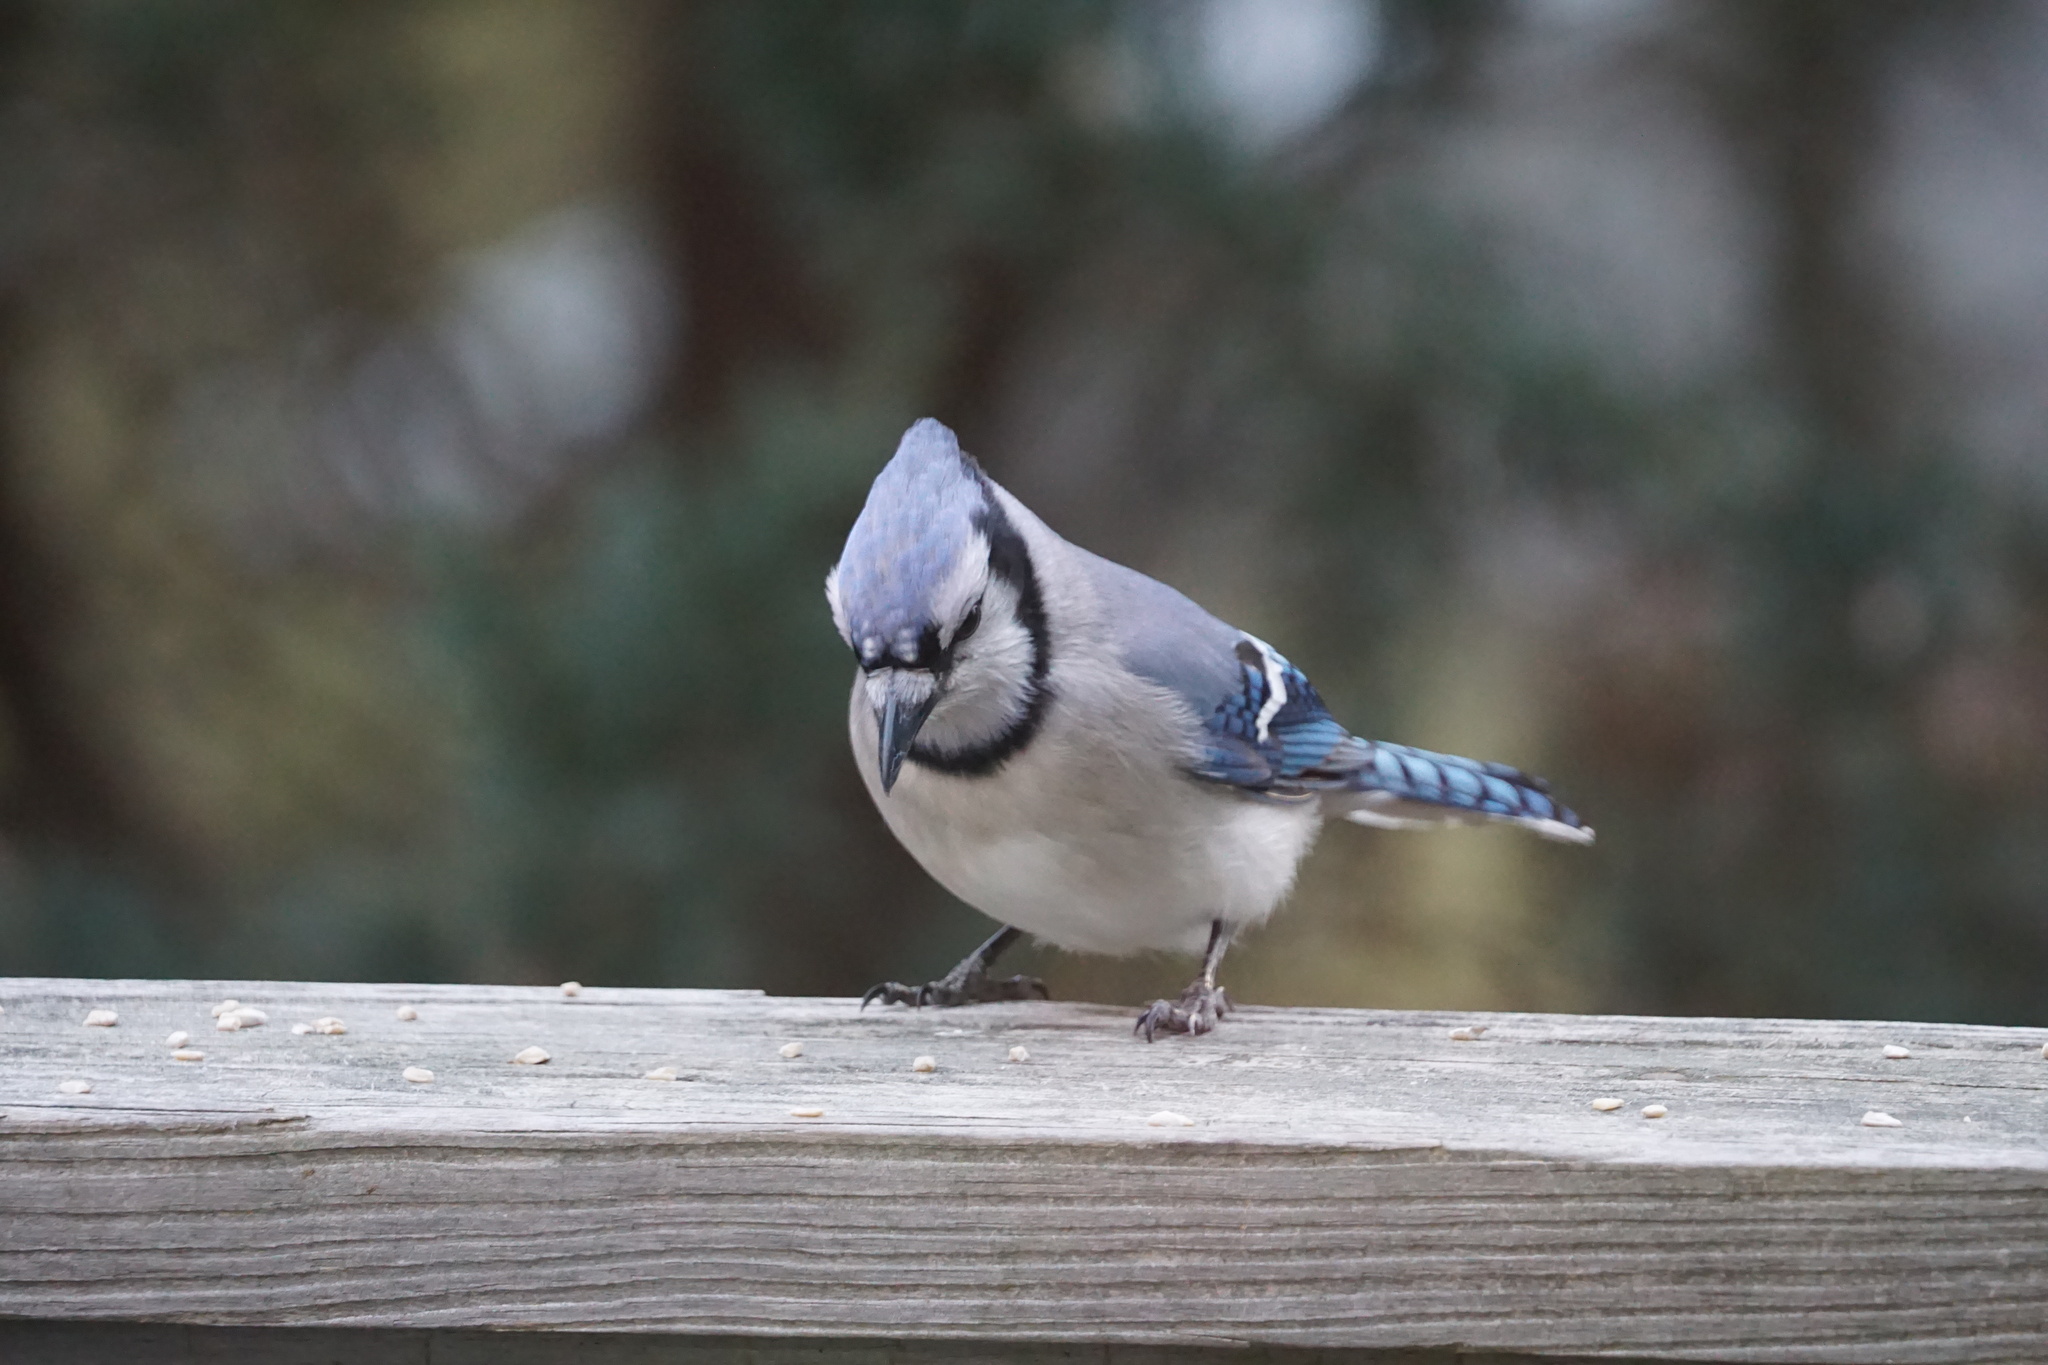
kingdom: Animalia
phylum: Chordata
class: Aves
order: Passeriformes
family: Corvidae
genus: Cyanocitta
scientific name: Cyanocitta cristata
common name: Blue jay
